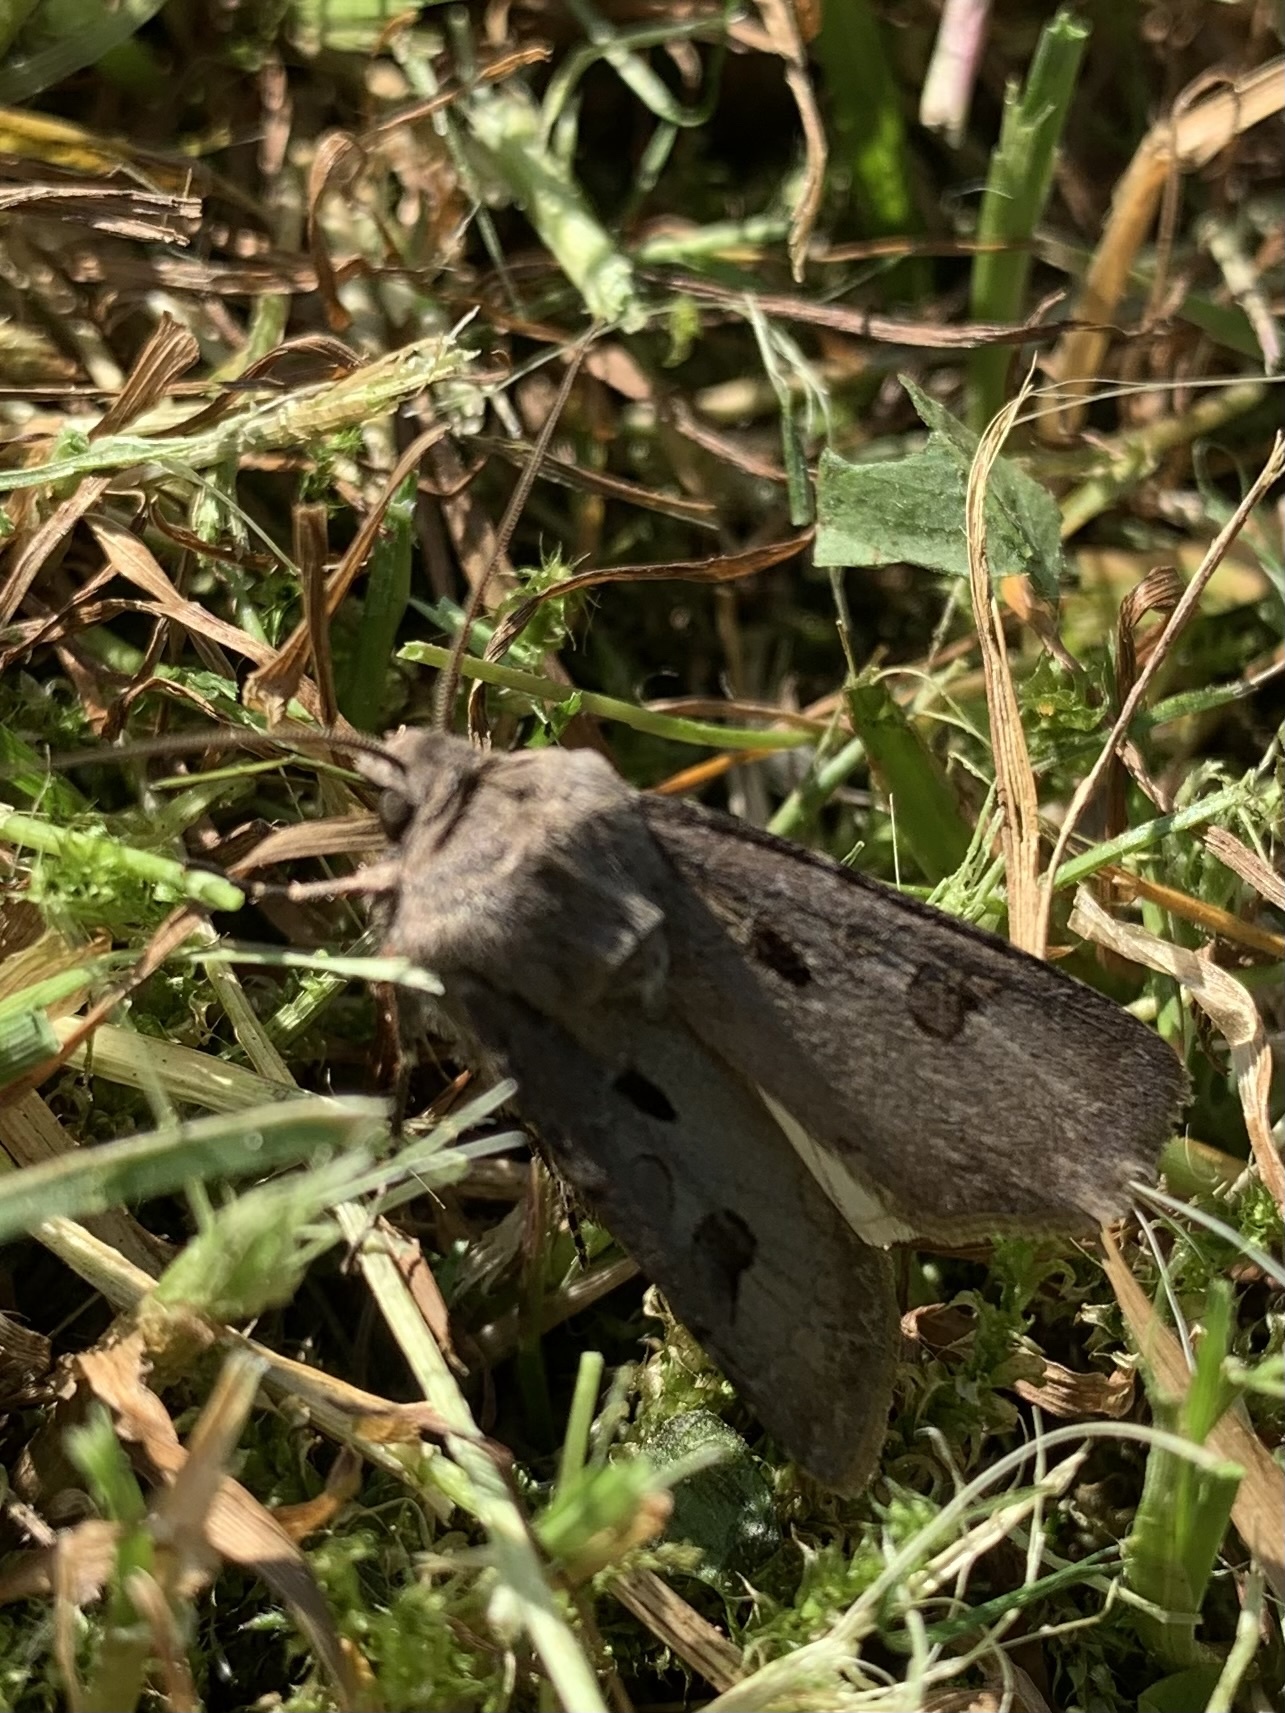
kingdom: Animalia
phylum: Arthropoda
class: Insecta
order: Lepidoptera
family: Noctuidae
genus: Agrotis
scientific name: Agrotis exclamationis
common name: Heart and dart
